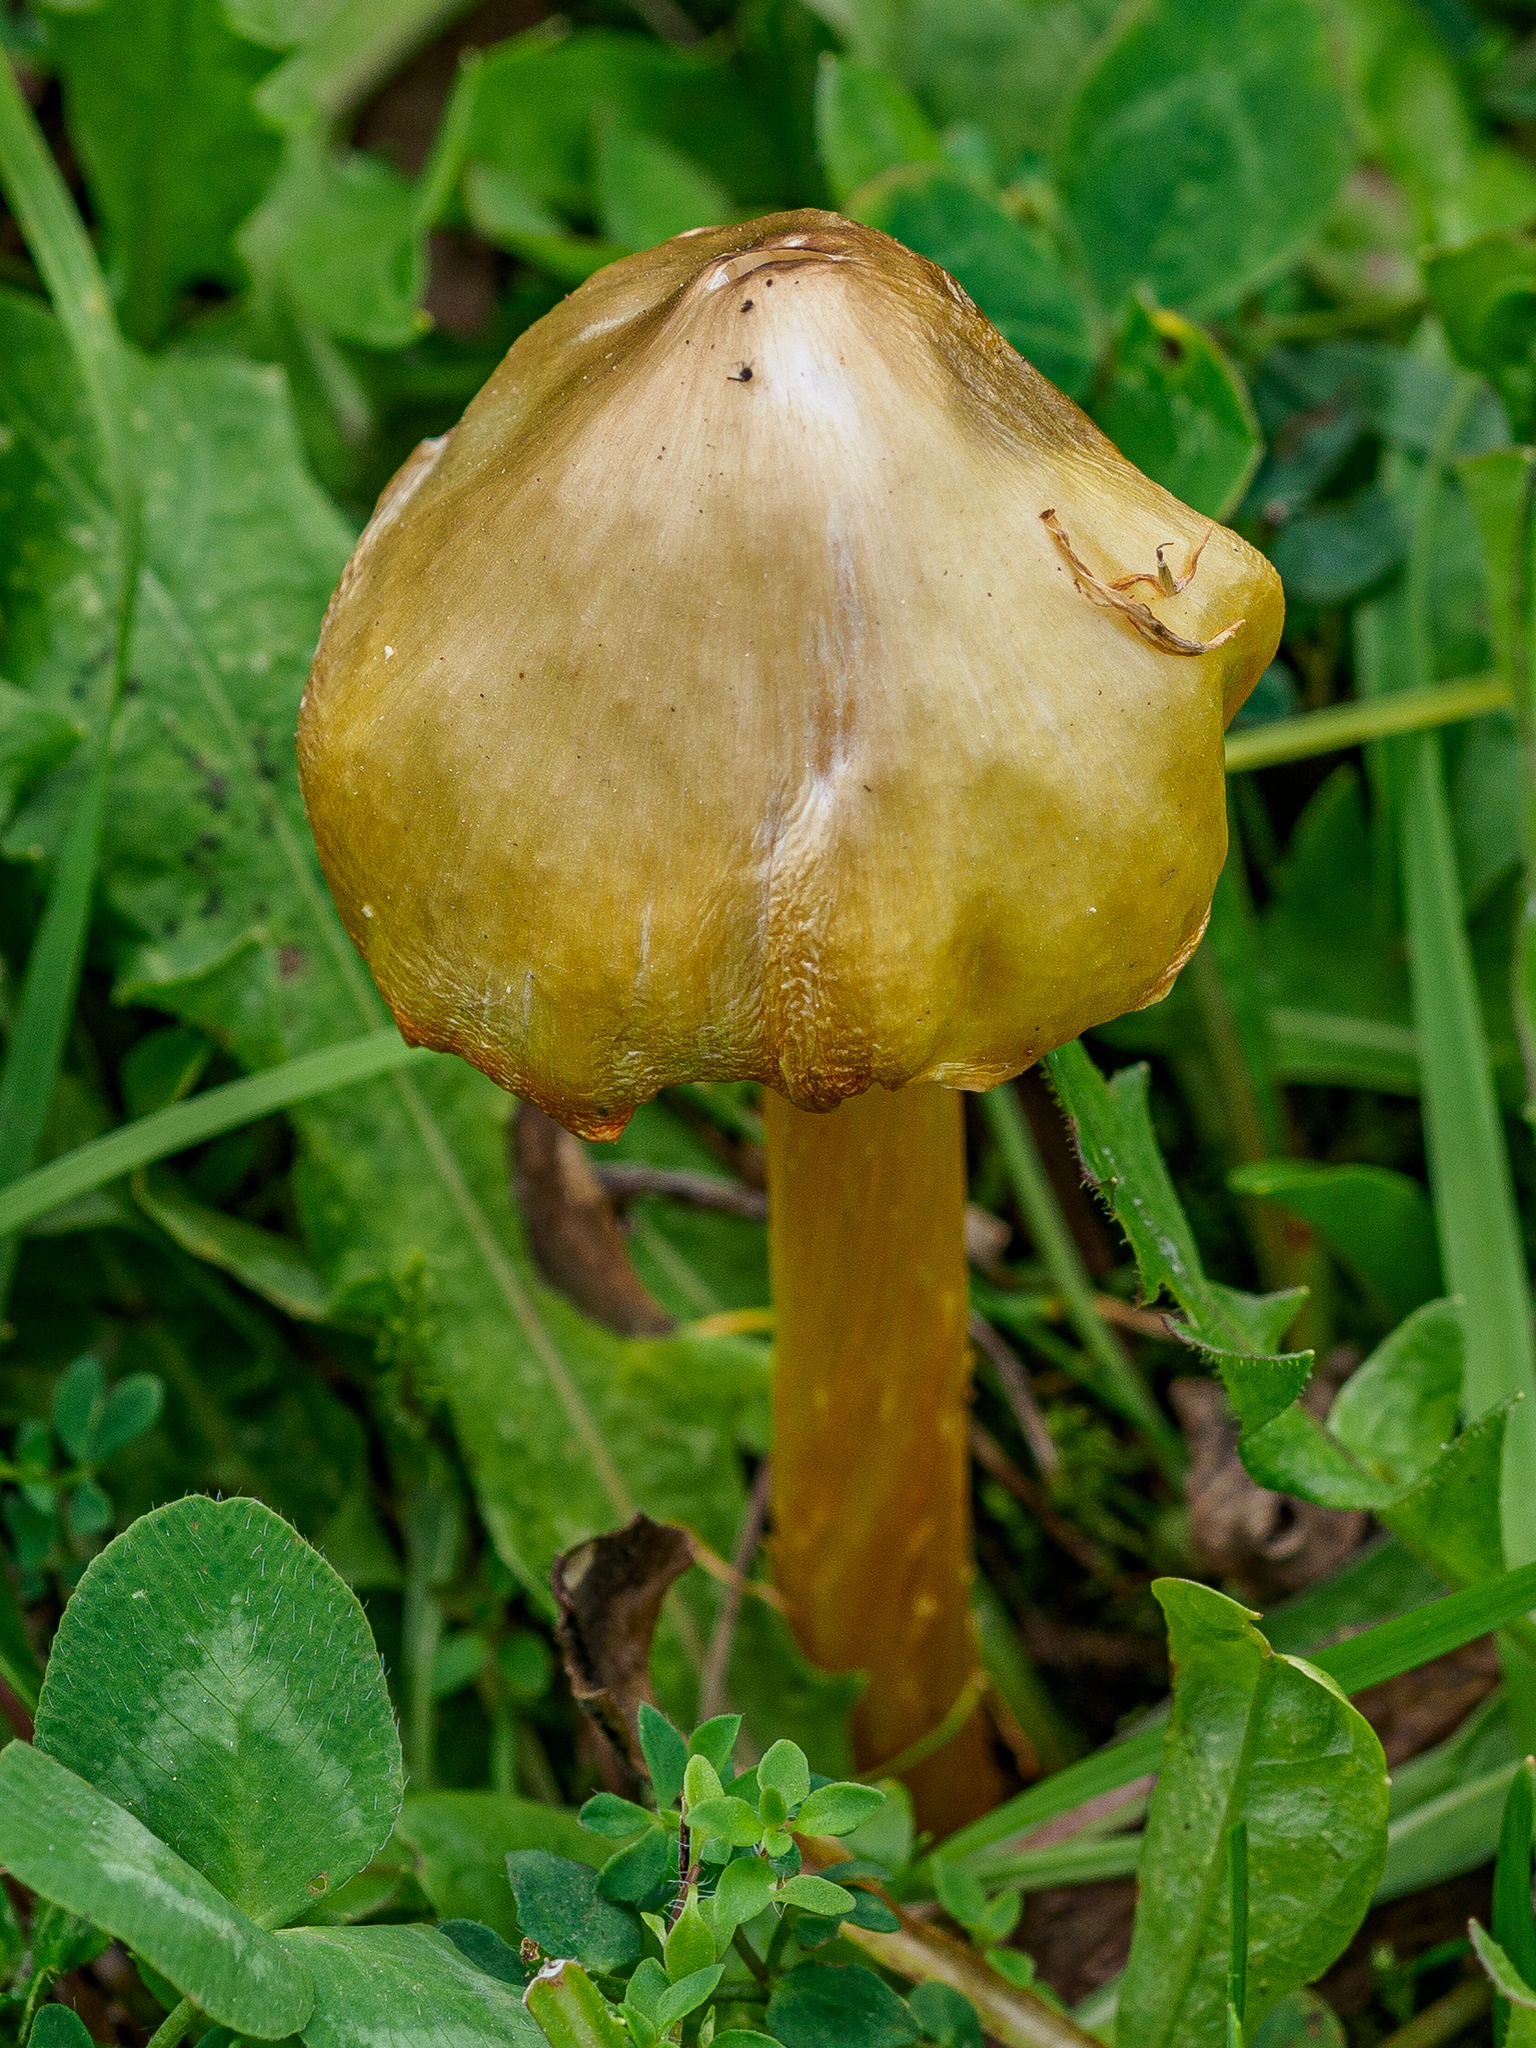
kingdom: Fungi
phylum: Basidiomycota
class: Agaricomycetes
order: Agaricales
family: Hygrophoraceae
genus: Hygrocybe
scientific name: Hygrocybe acutoconica
